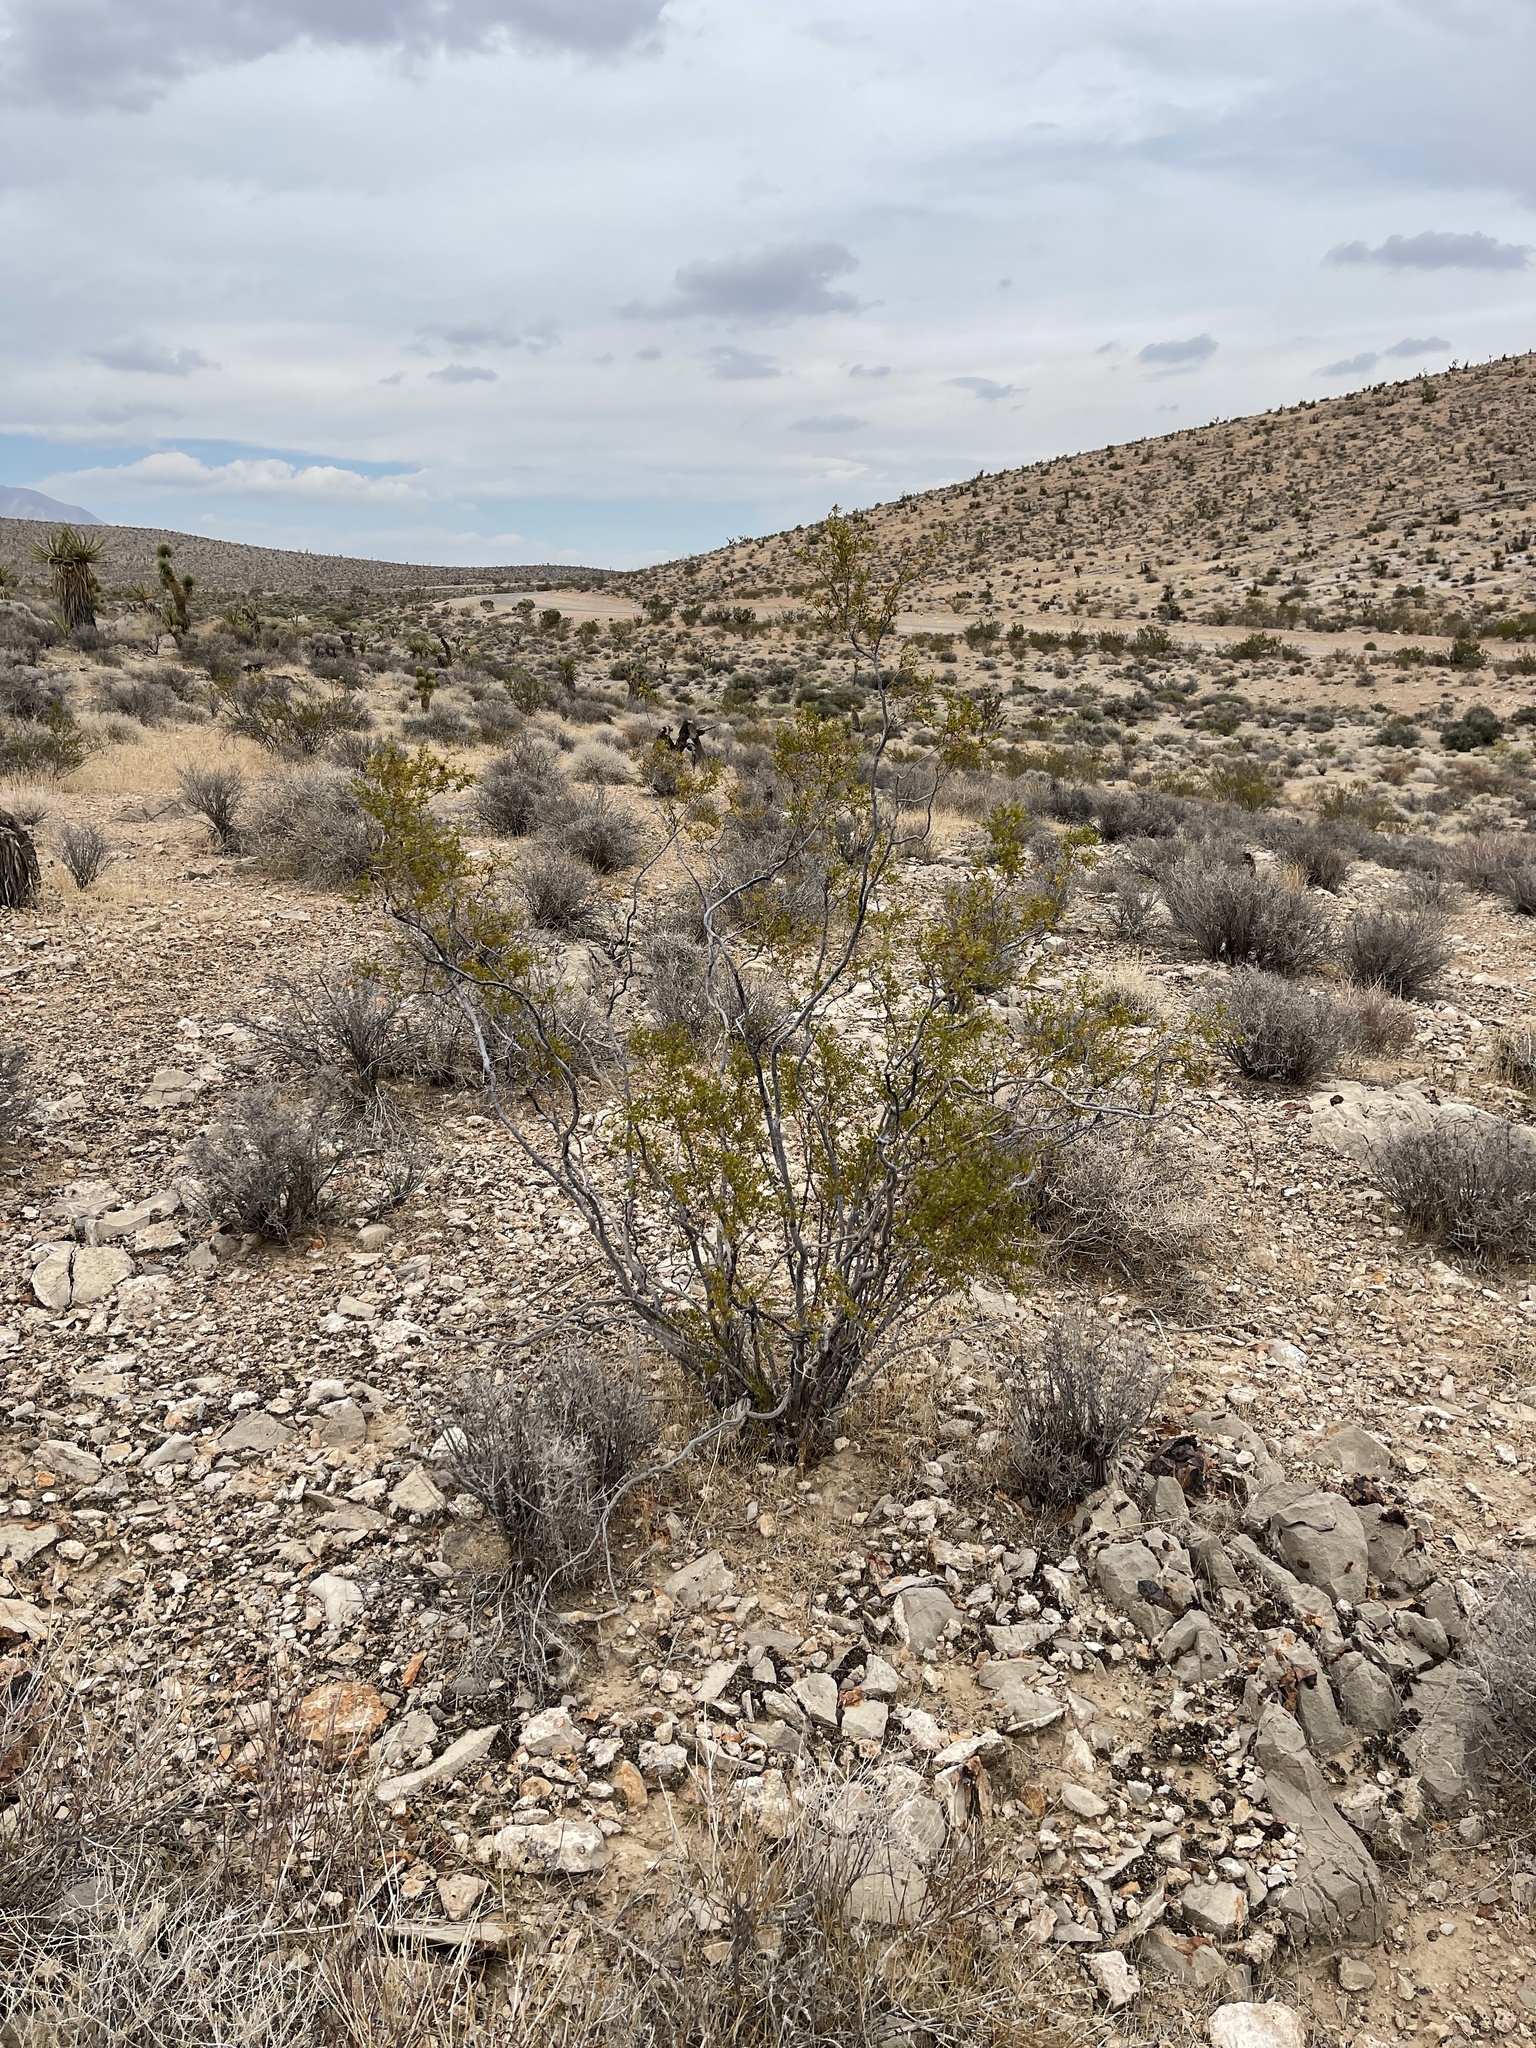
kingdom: Plantae
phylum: Tracheophyta
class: Magnoliopsida
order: Zygophyllales
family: Zygophyllaceae
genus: Larrea
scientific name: Larrea tridentata
